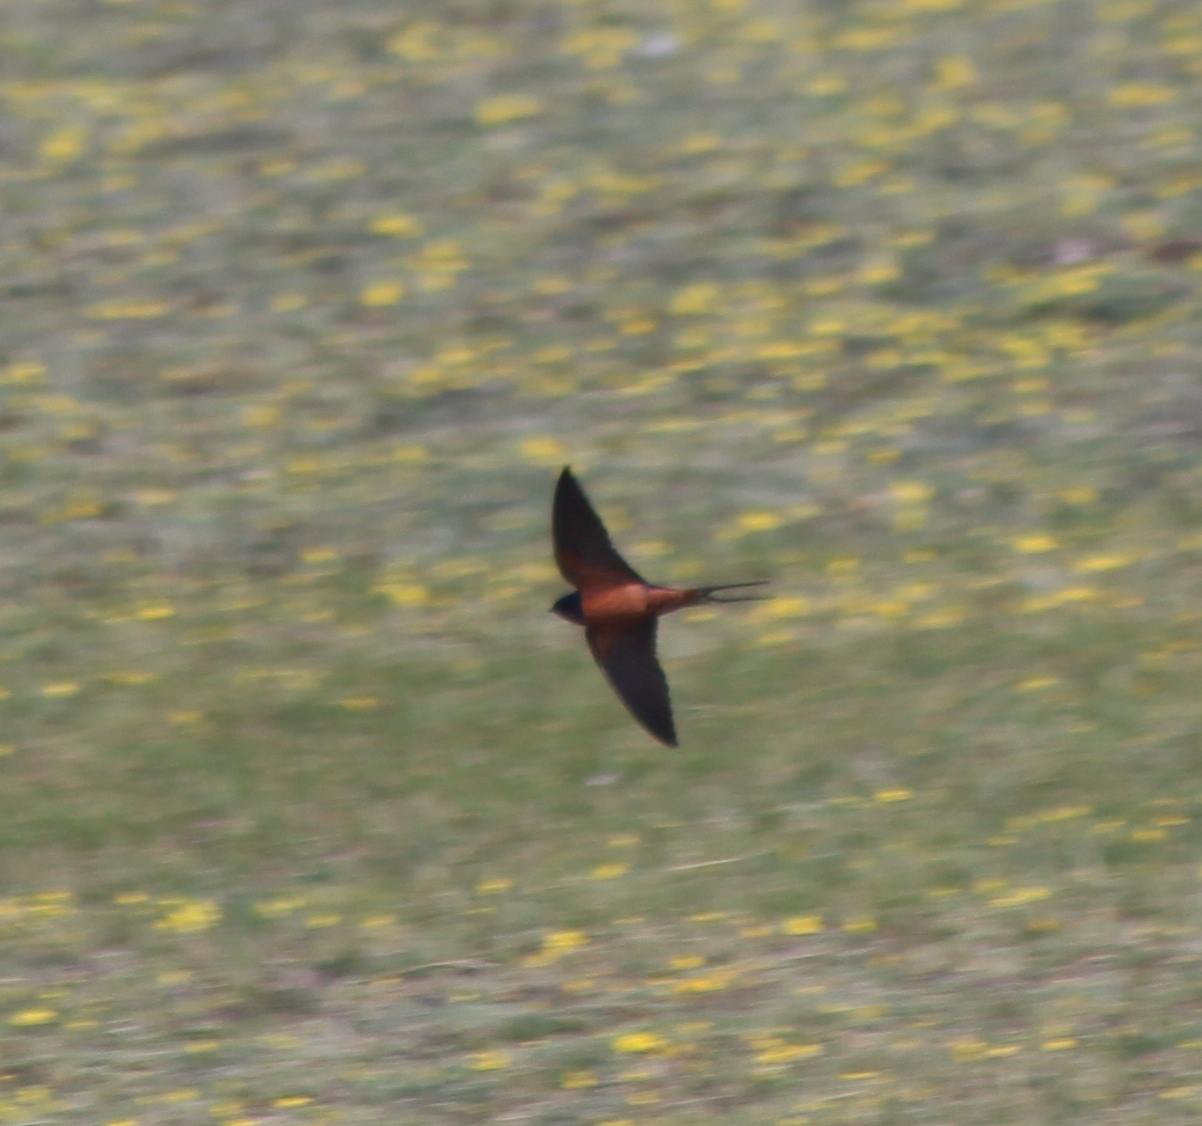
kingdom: Animalia
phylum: Chordata
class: Aves
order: Passeriformes
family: Hirundinidae
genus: Hirundo
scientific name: Hirundo rustica
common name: Barn swallow
